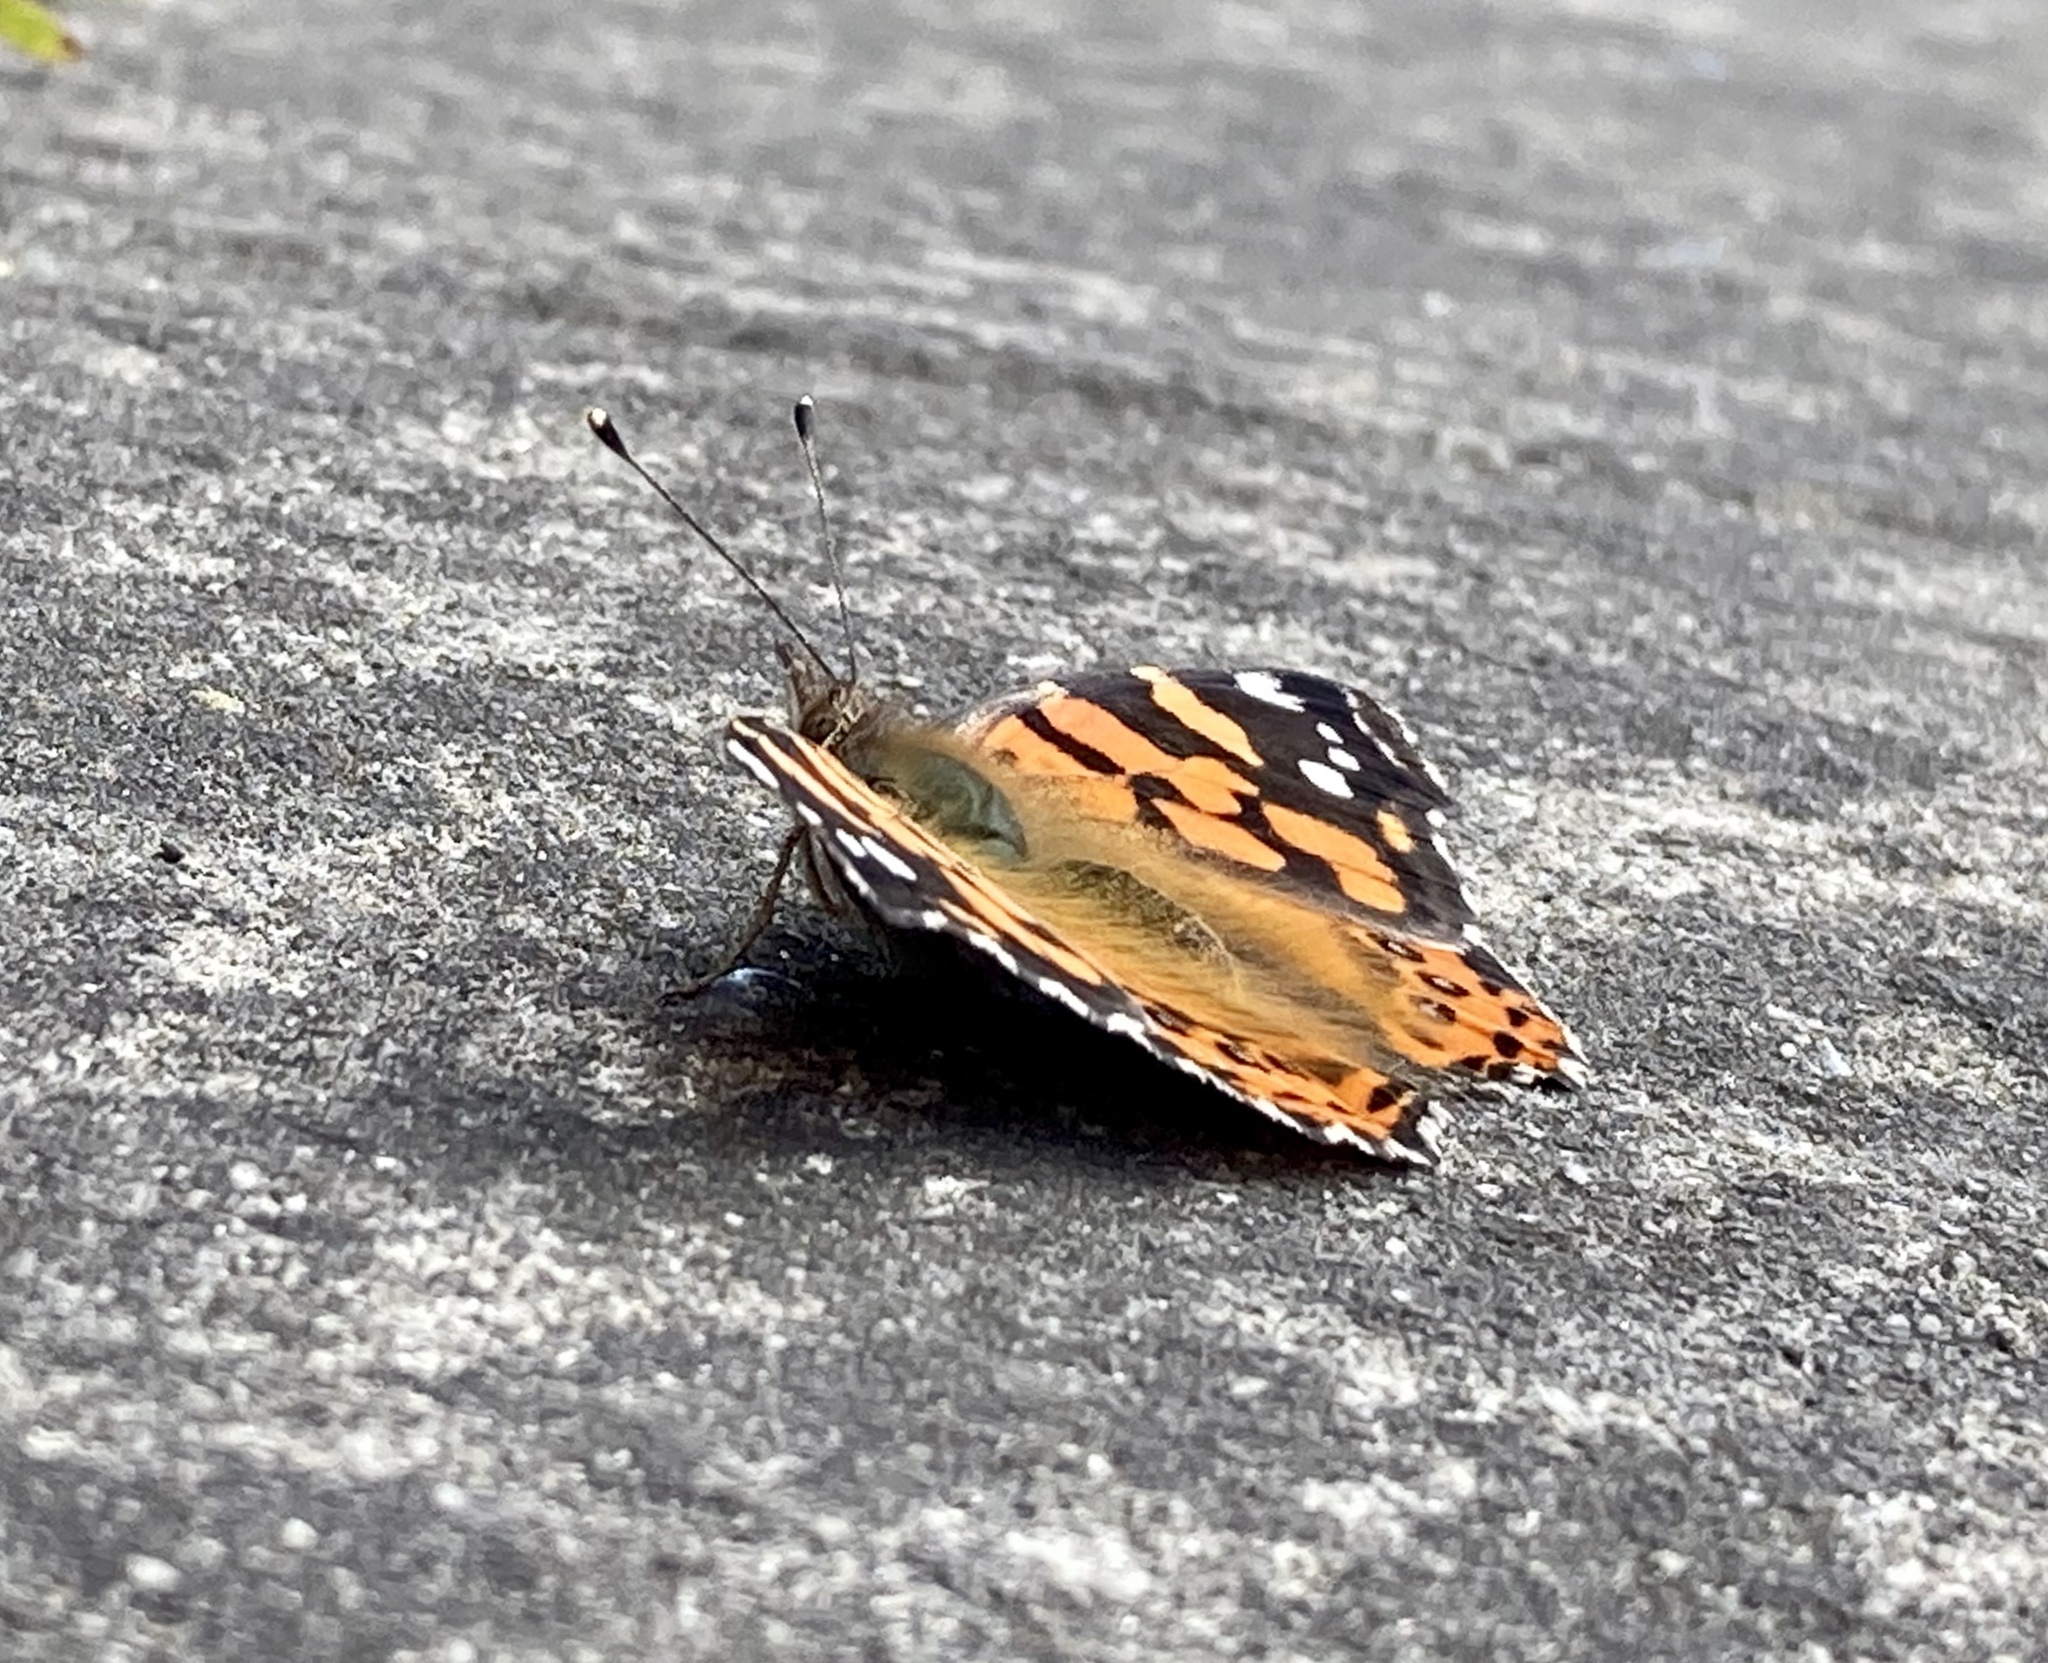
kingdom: Animalia
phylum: Arthropoda
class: Insecta
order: Lepidoptera
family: Nymphalidae
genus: Vanessa
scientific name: Vanessa carye
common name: Subtropical lady
